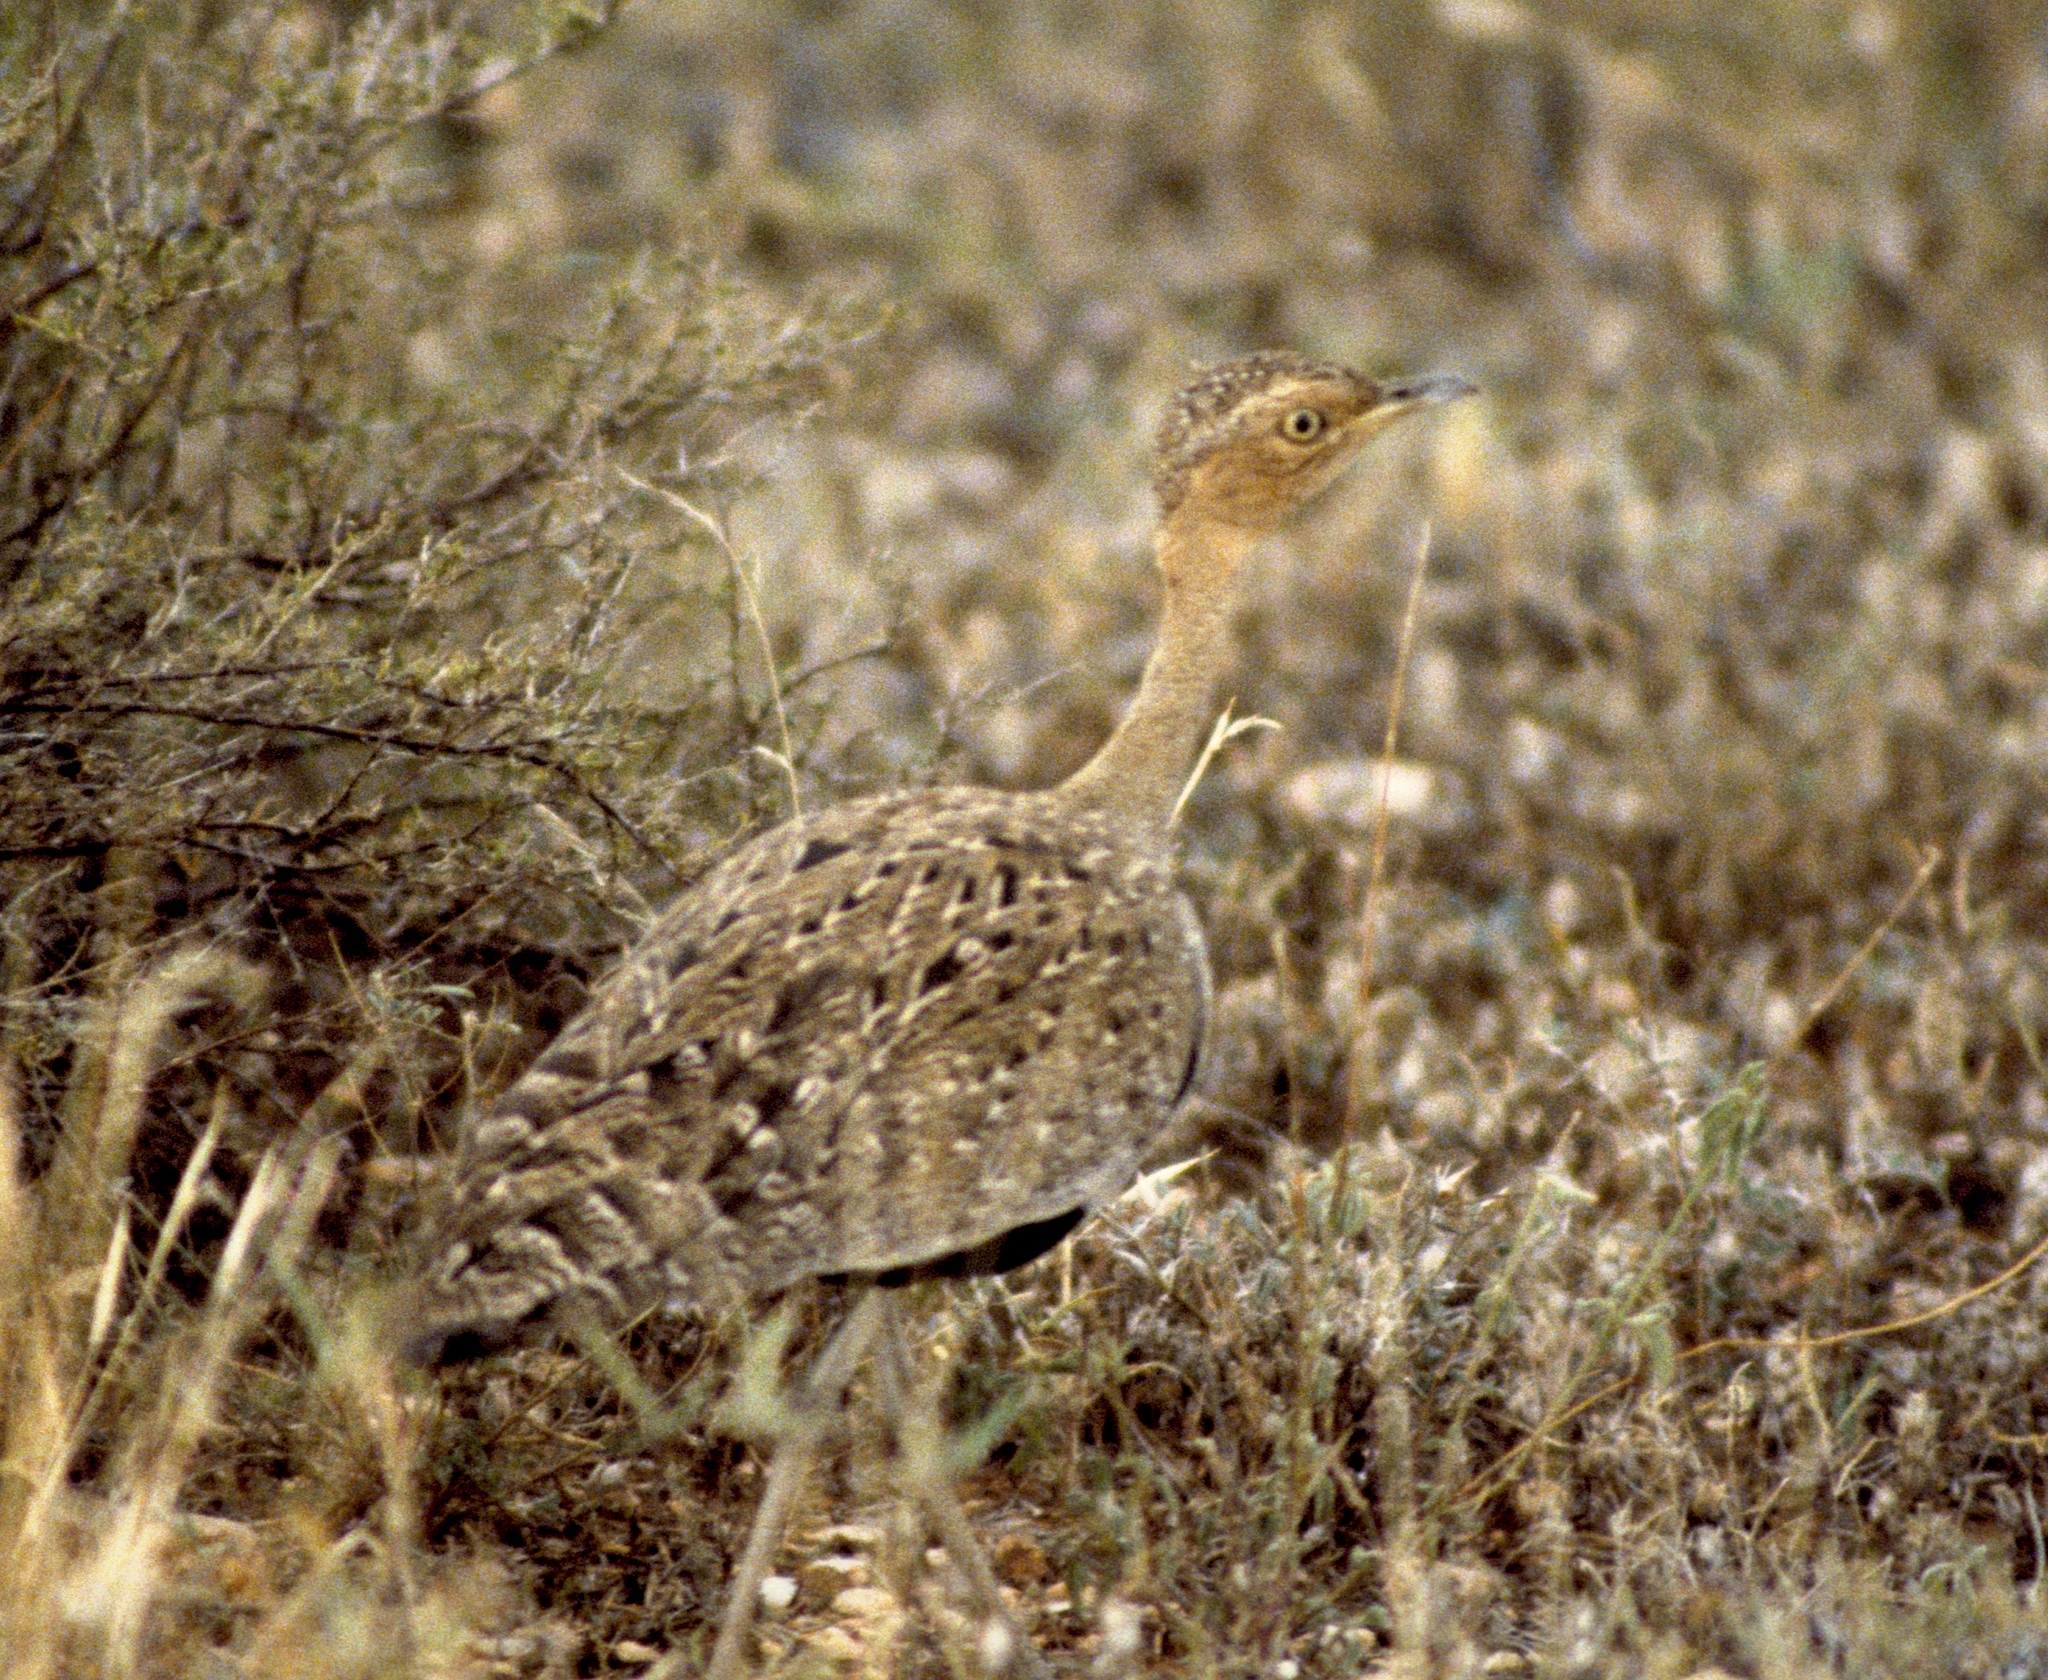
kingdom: Animalia
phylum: Chordata
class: Aves
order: Otidiformes
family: Otididae
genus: Lophotis
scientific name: Lophotis gindiana
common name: Buff-crested bustard
